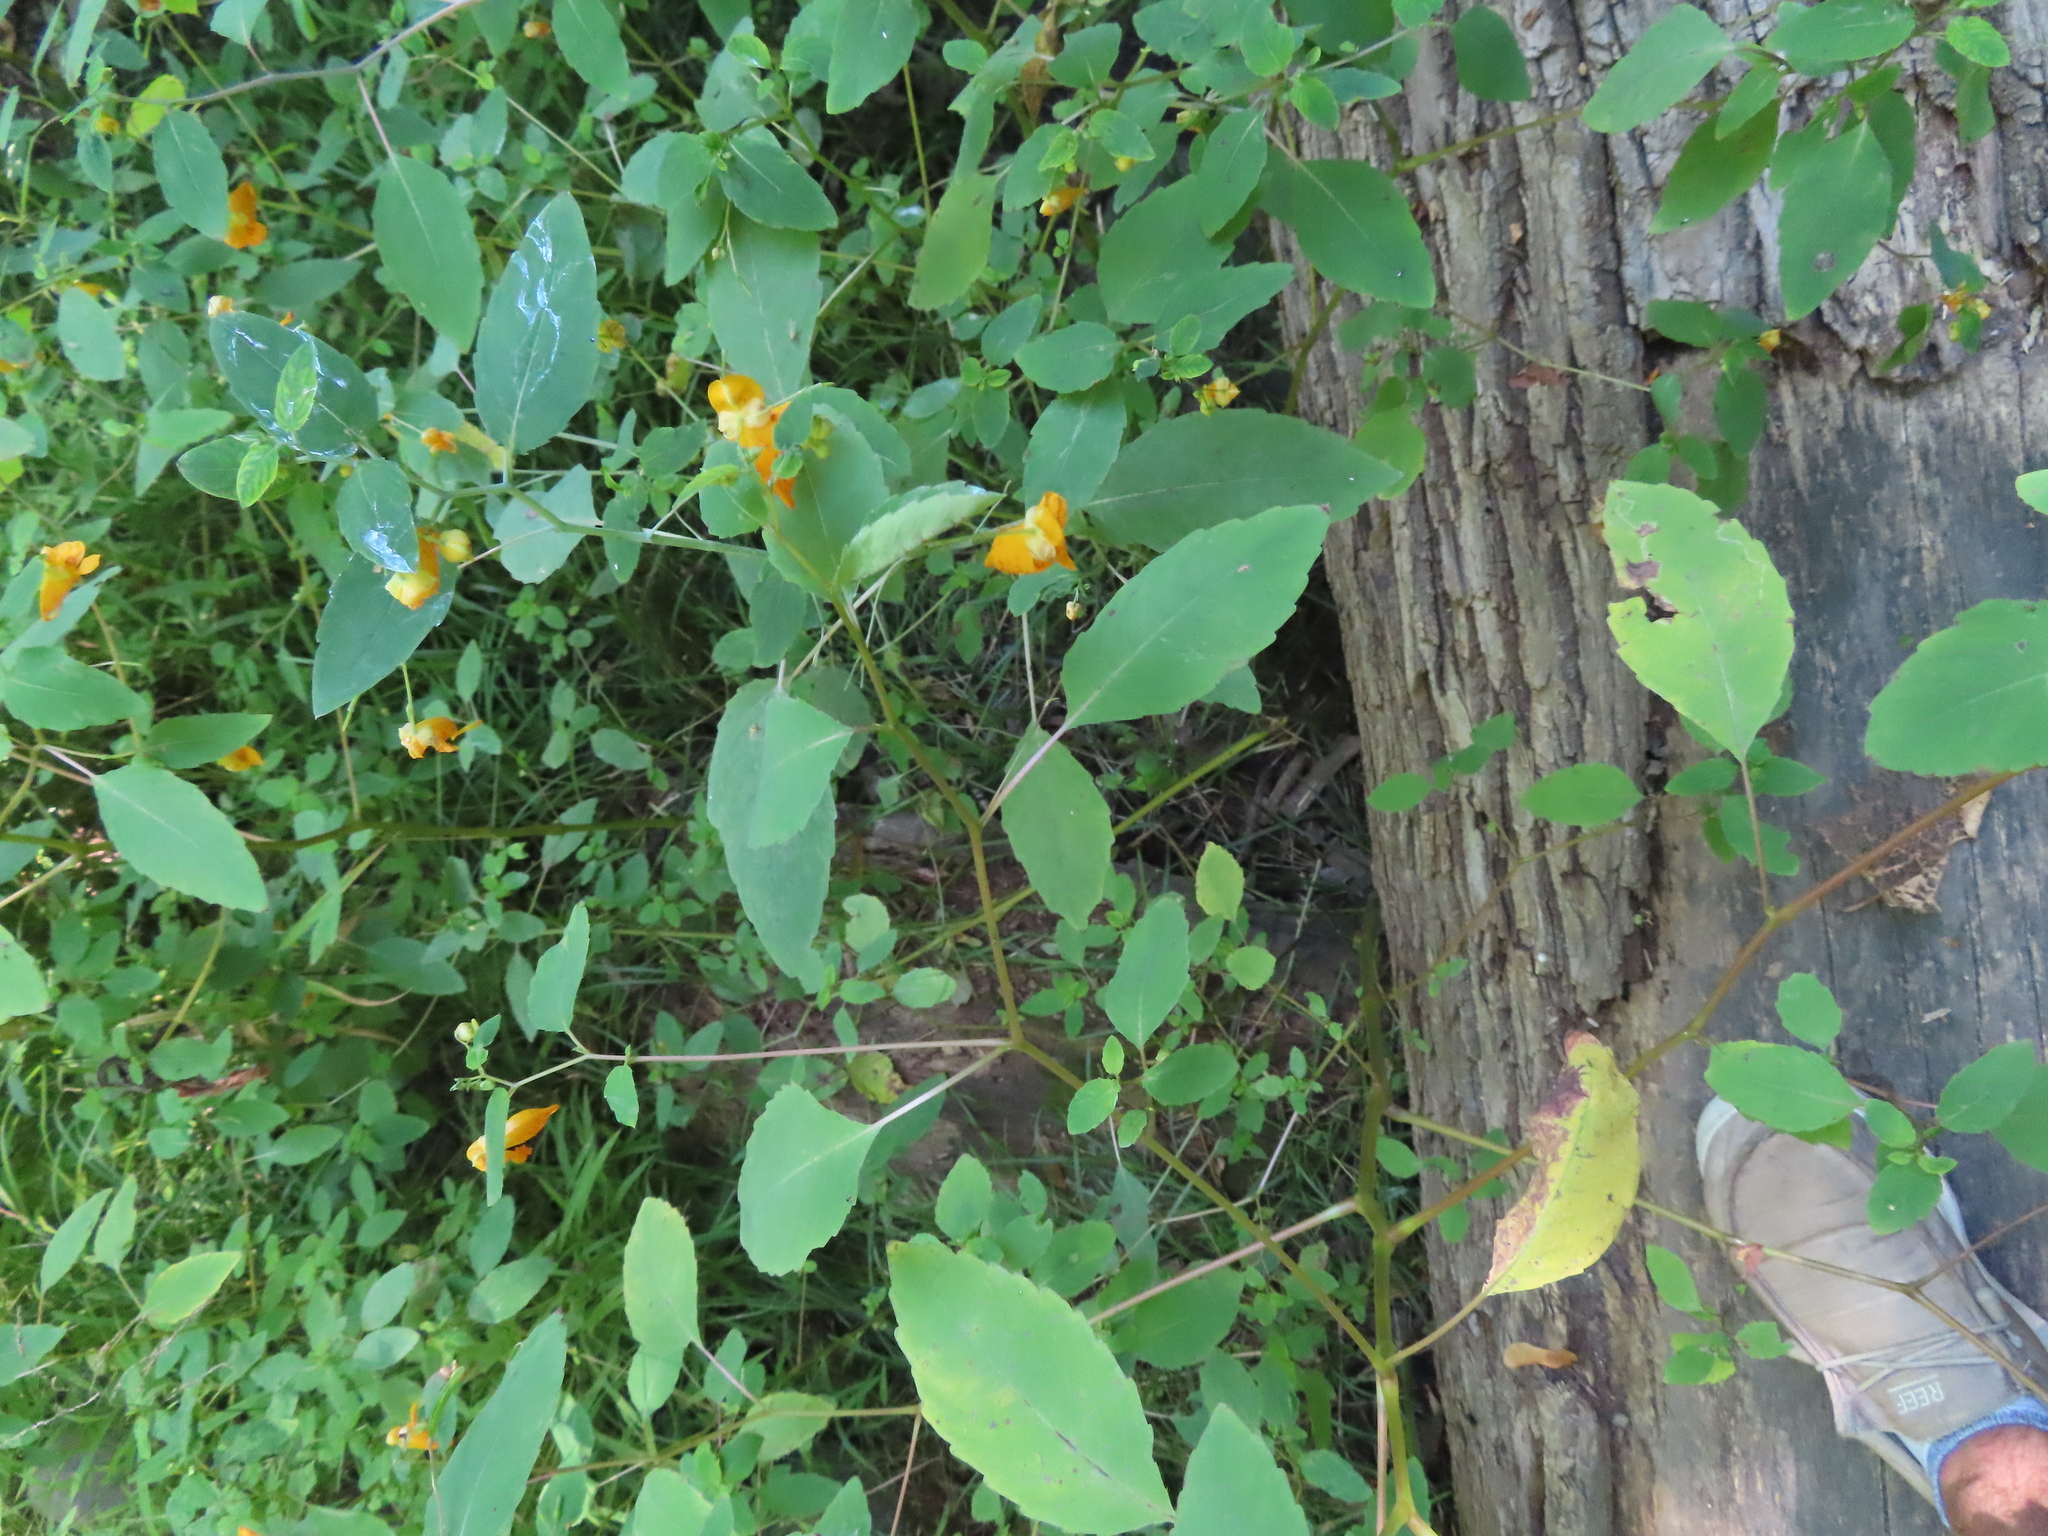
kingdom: Plantae
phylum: Tracheophyta
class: Magnoliopsida
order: Ericales
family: Balsaminaceae
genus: Impatiens
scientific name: Impatiens capensis
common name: Orange balsam
